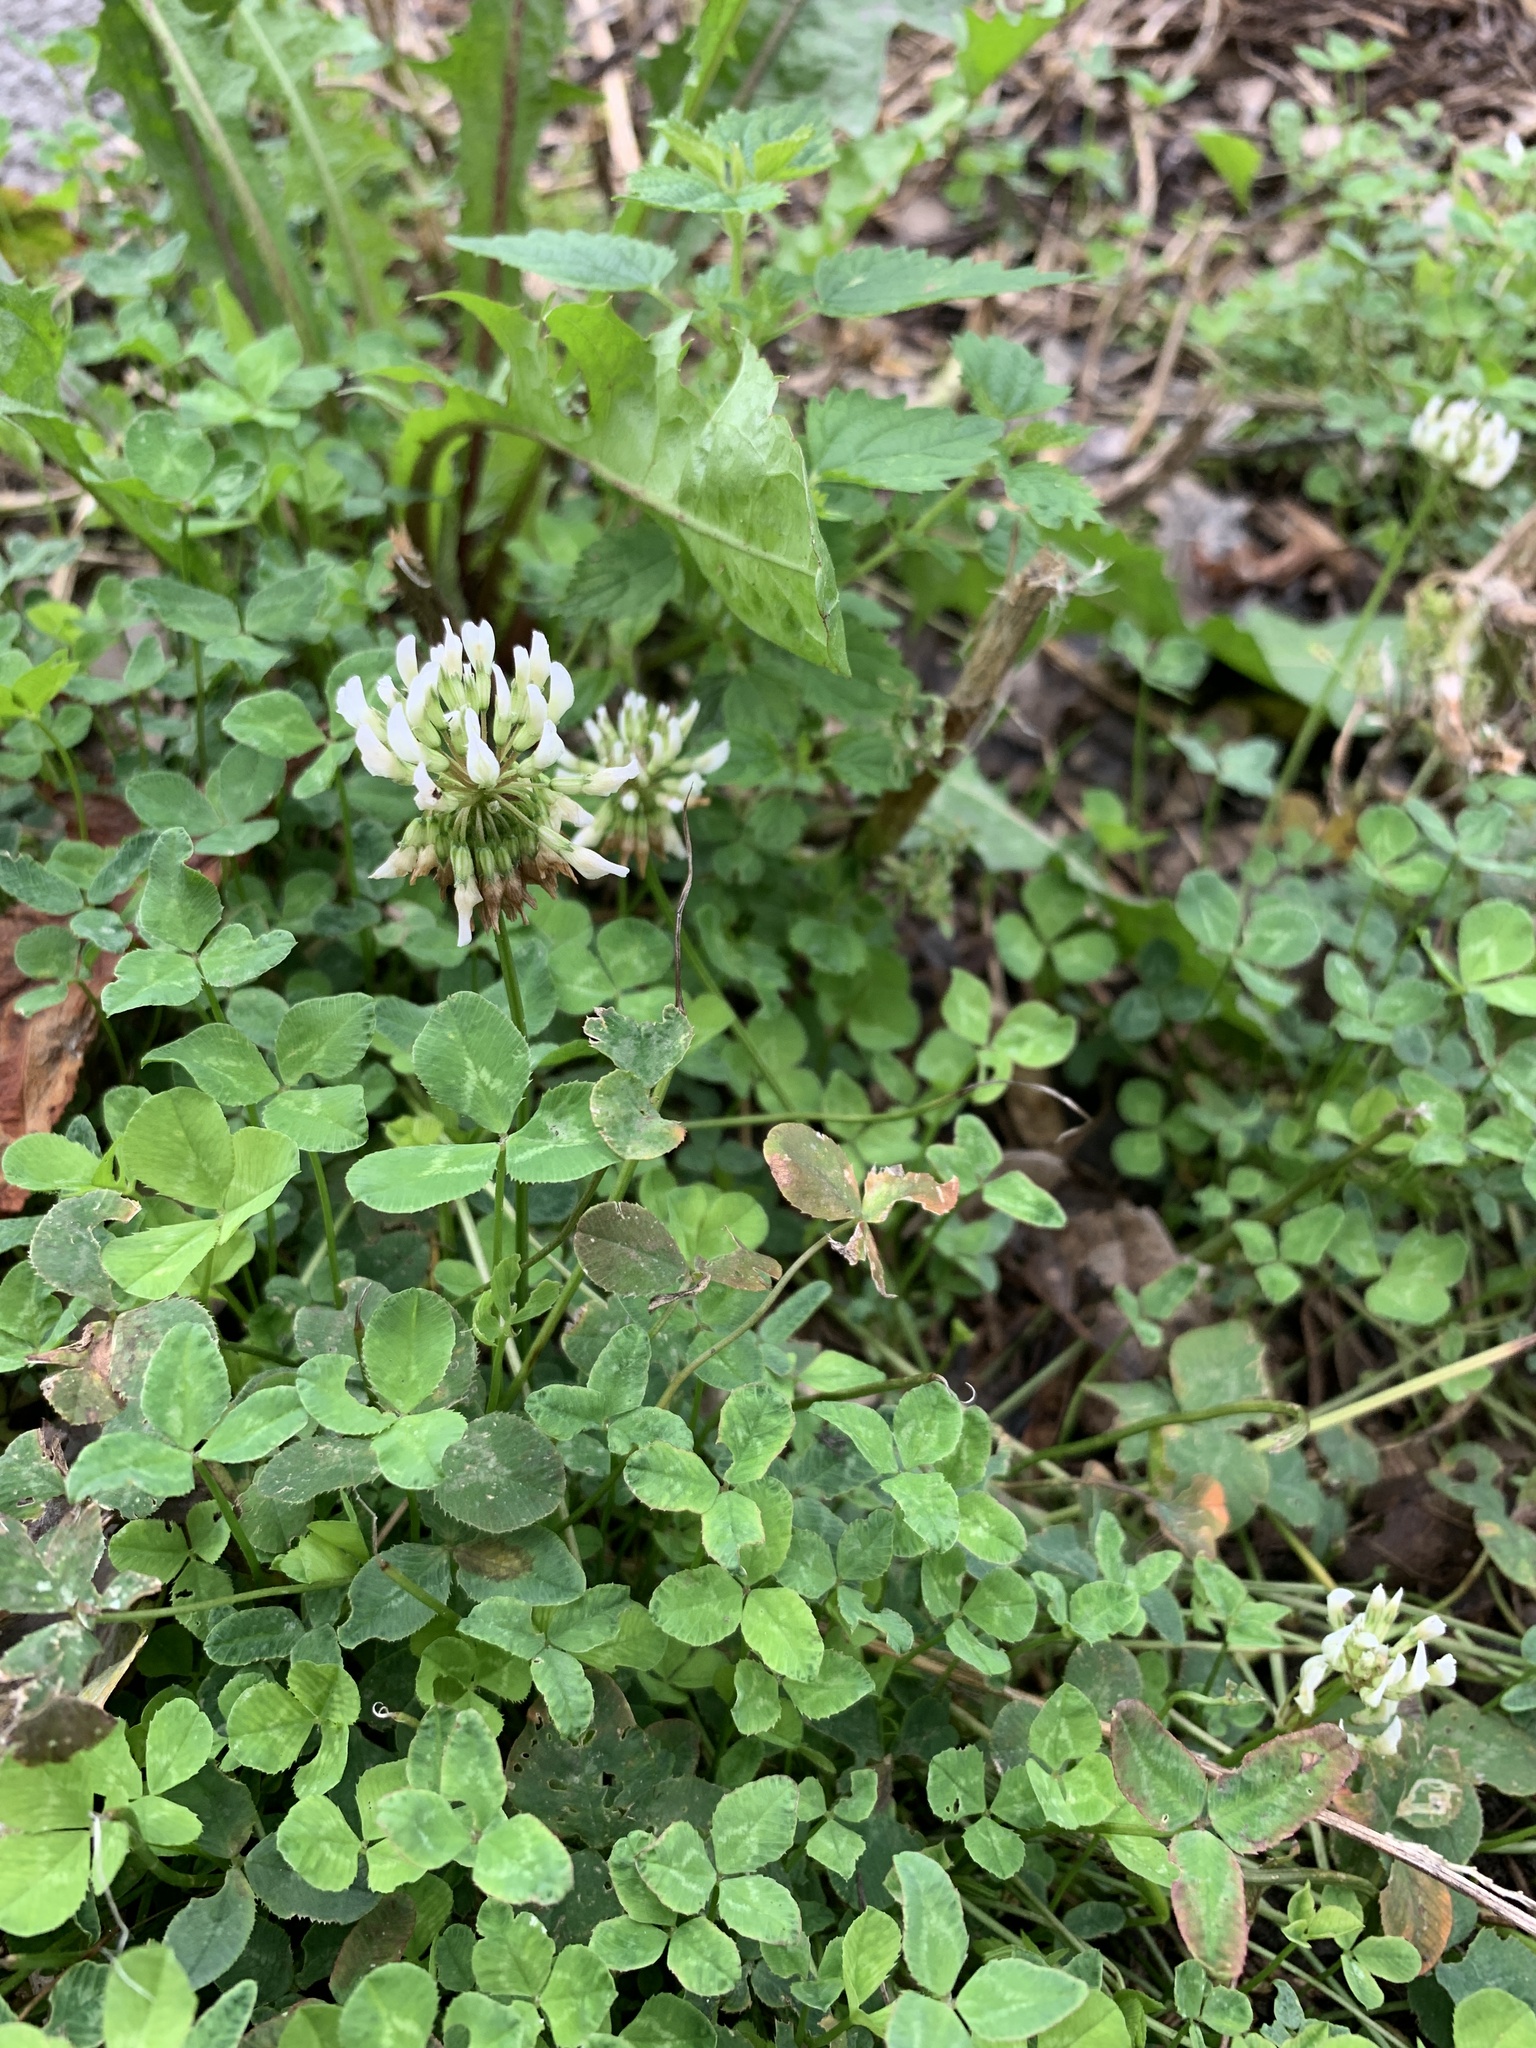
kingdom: Plantae
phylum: Tracheophyta
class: Magnoliopsida
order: Fabales
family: Fabaceae
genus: Trifolium
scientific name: Trifolium repens
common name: White clover
